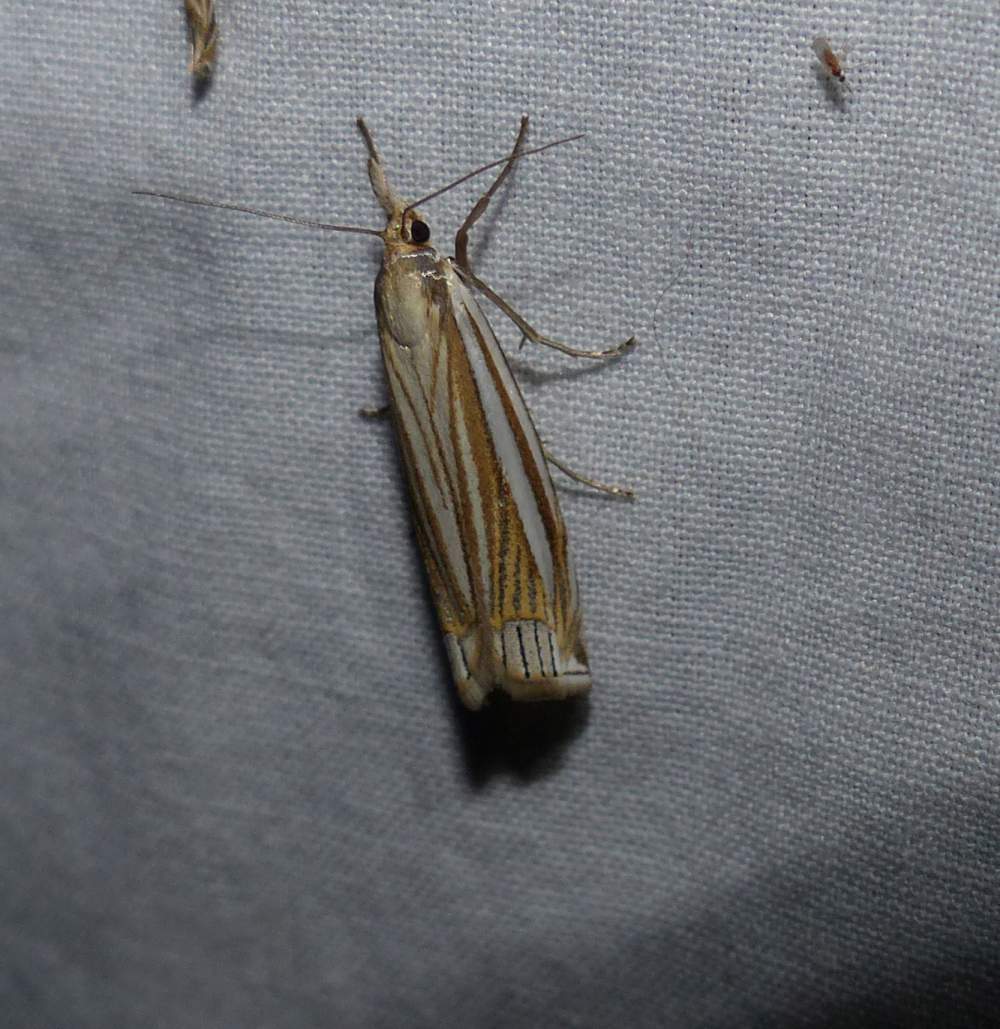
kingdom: Animalia
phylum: Arthropoda
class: Insecta
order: Lepidoptera
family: Crambidae
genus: Crambus
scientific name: Crambus laqueatellus
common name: Eastern grass-veneer
